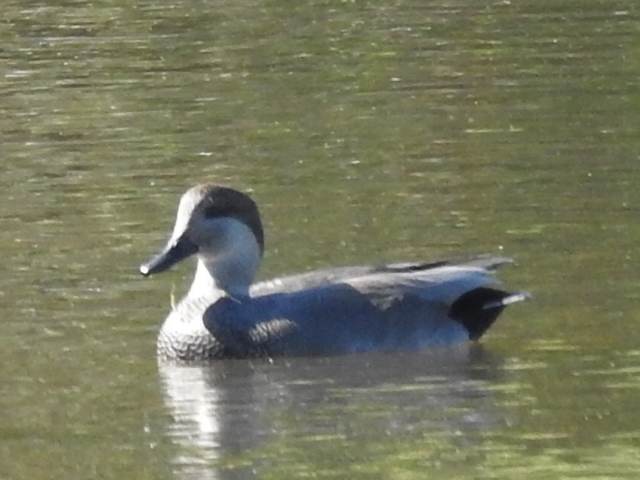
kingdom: Animalia
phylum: Chordata
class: Aves
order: Anseriformes
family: Anatidae
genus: Mareca
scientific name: Mareca strepera
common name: Gadwall
